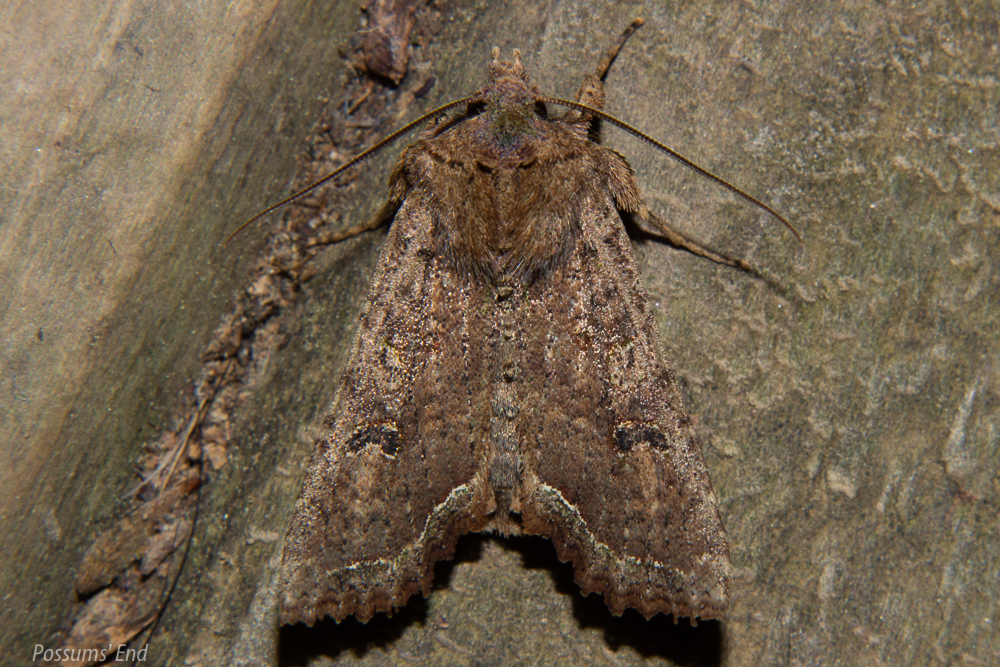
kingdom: Animalia
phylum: Arthropoda
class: Insecta
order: Lepidoptera
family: Noctuidae
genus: Meterana
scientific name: Meterana inchoata
